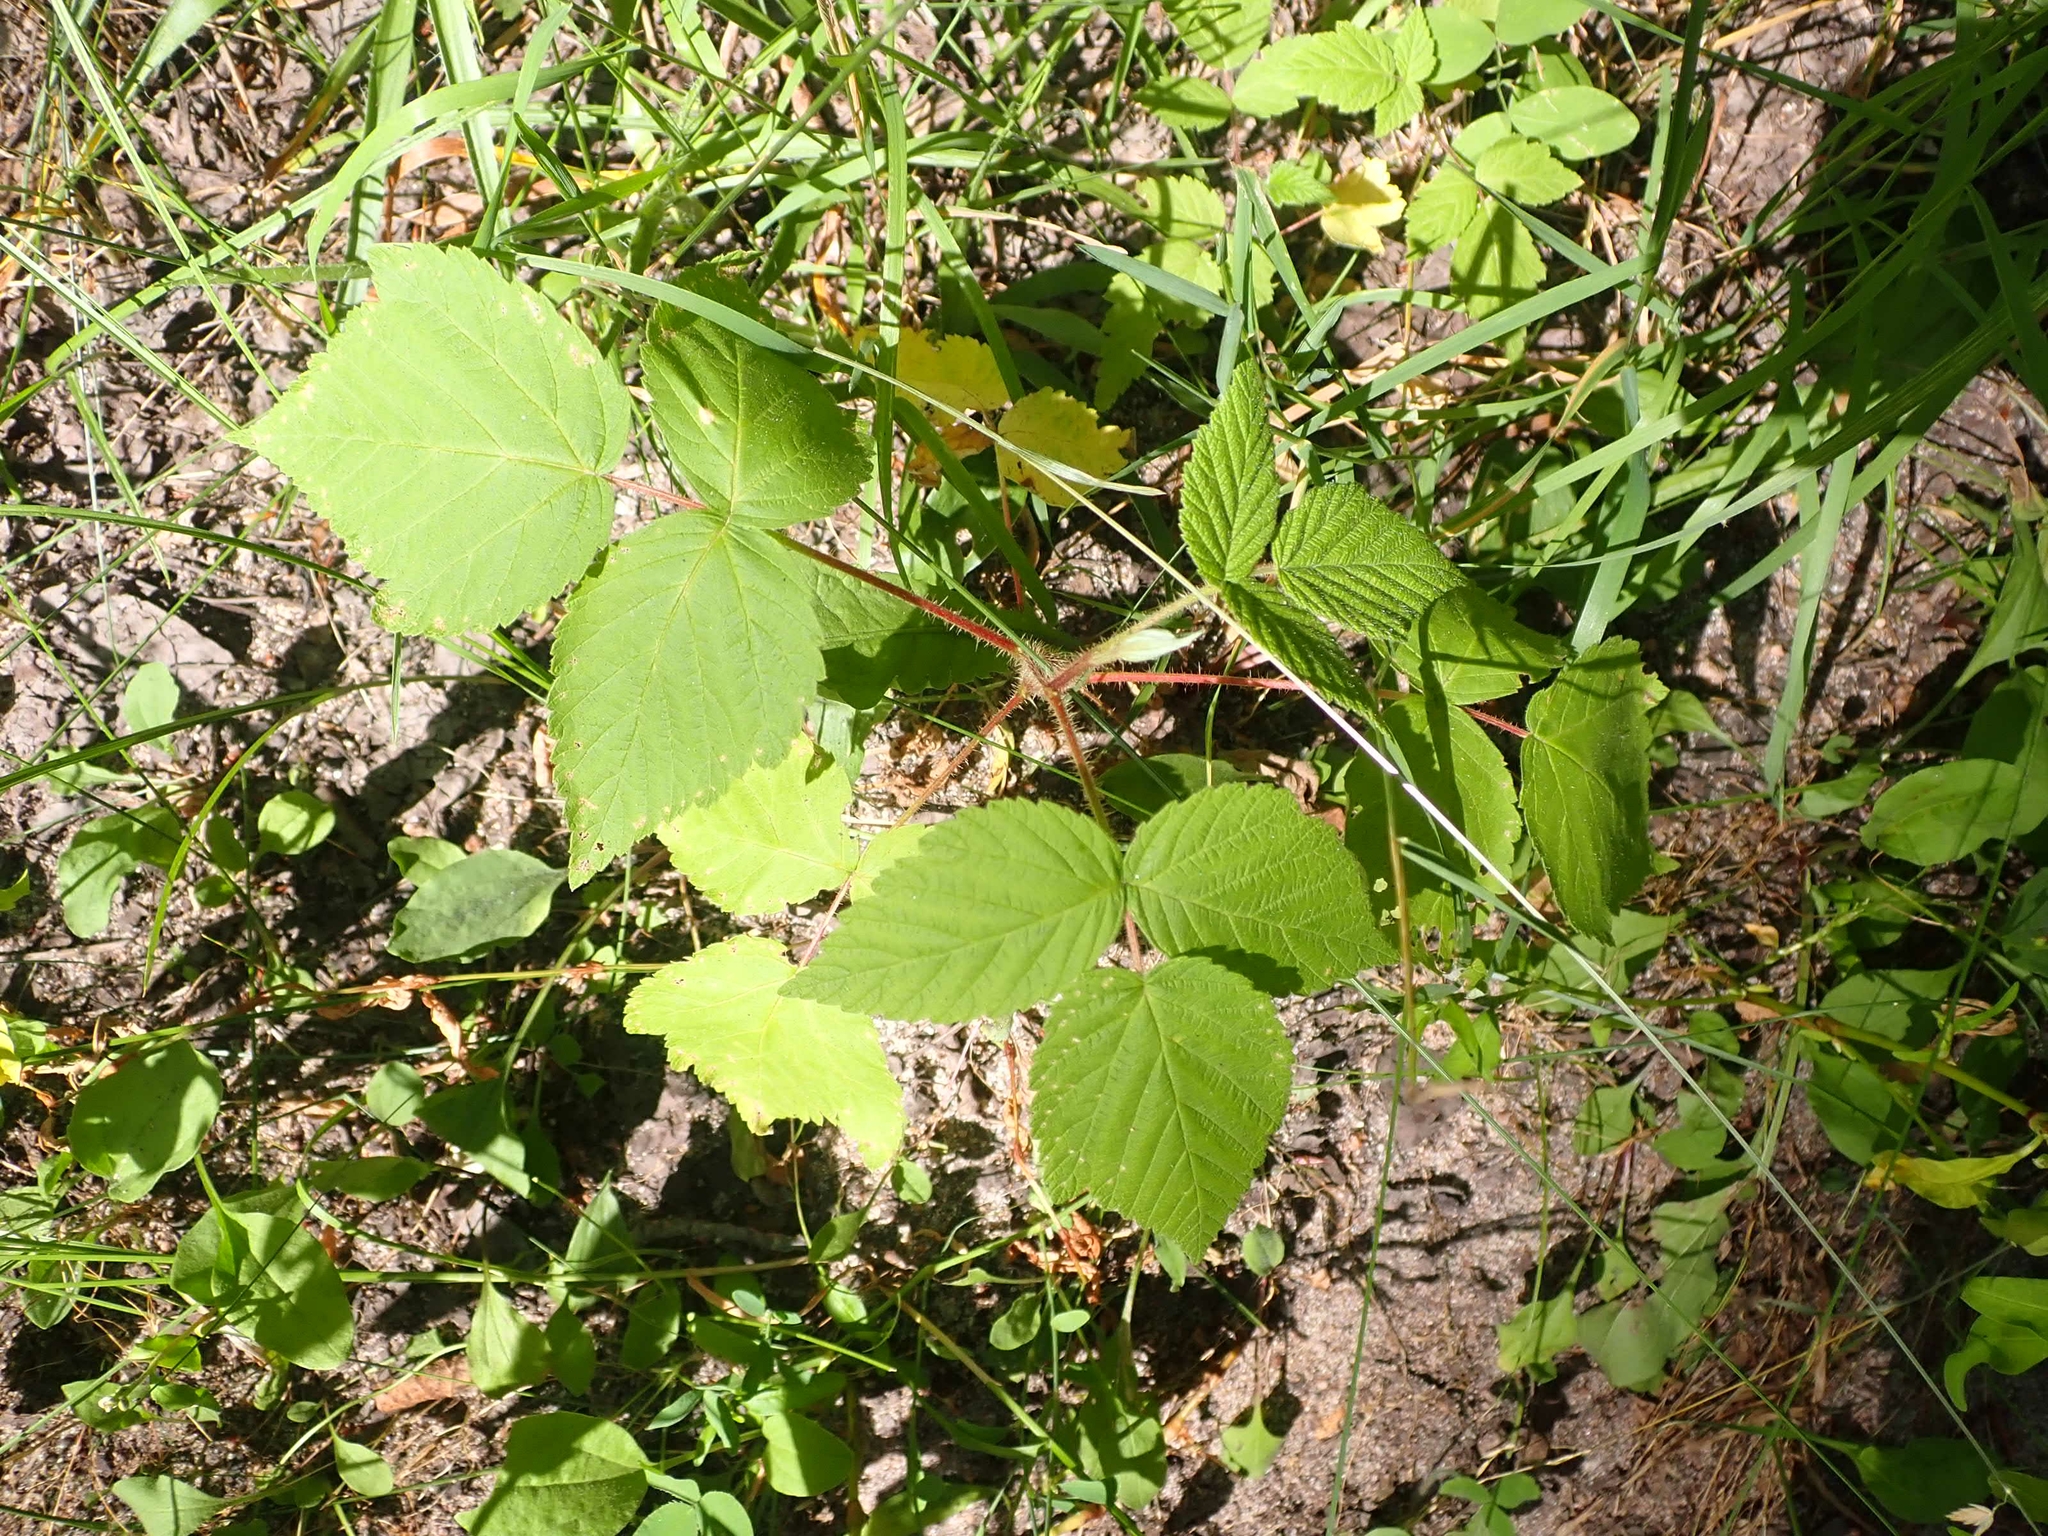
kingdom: Plantae
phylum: Tracheophyta
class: Magnoliopsida
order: Rosales
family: Rosaceae
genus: Rubus
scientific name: Rubus idaeus
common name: Raspberry
